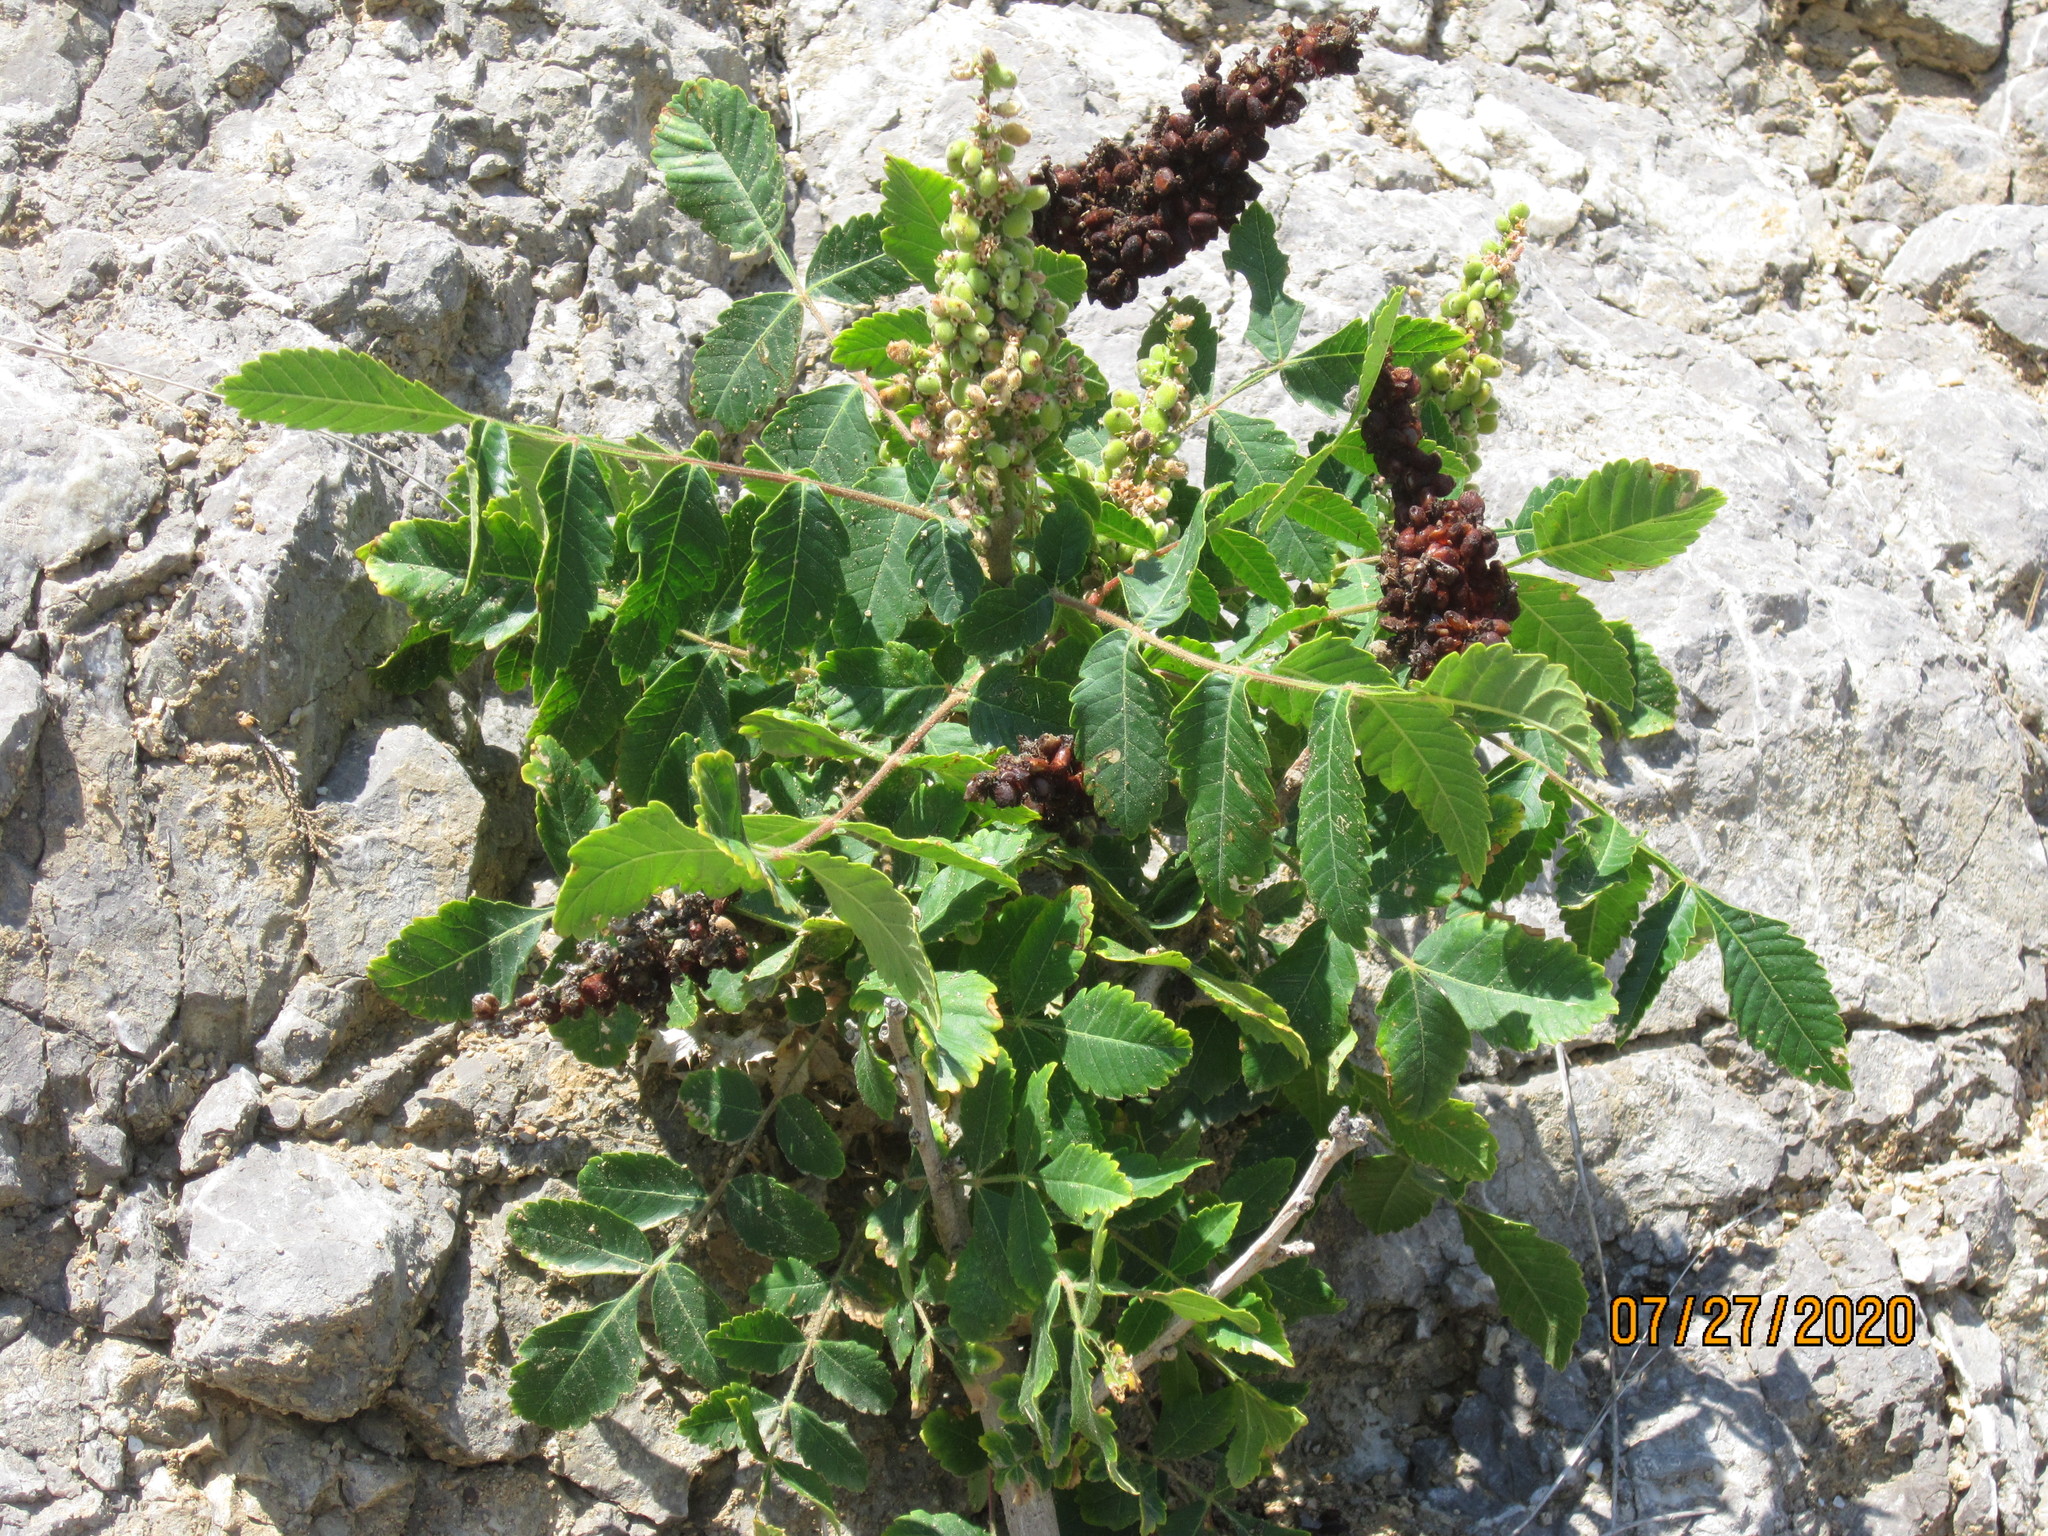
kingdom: Plantae
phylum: Tracheophyta
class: Magnoliopsida
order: Sapindales
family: Anacardiaceae
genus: Rhus
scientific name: Rhus coriaria
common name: Tanner's sumach
